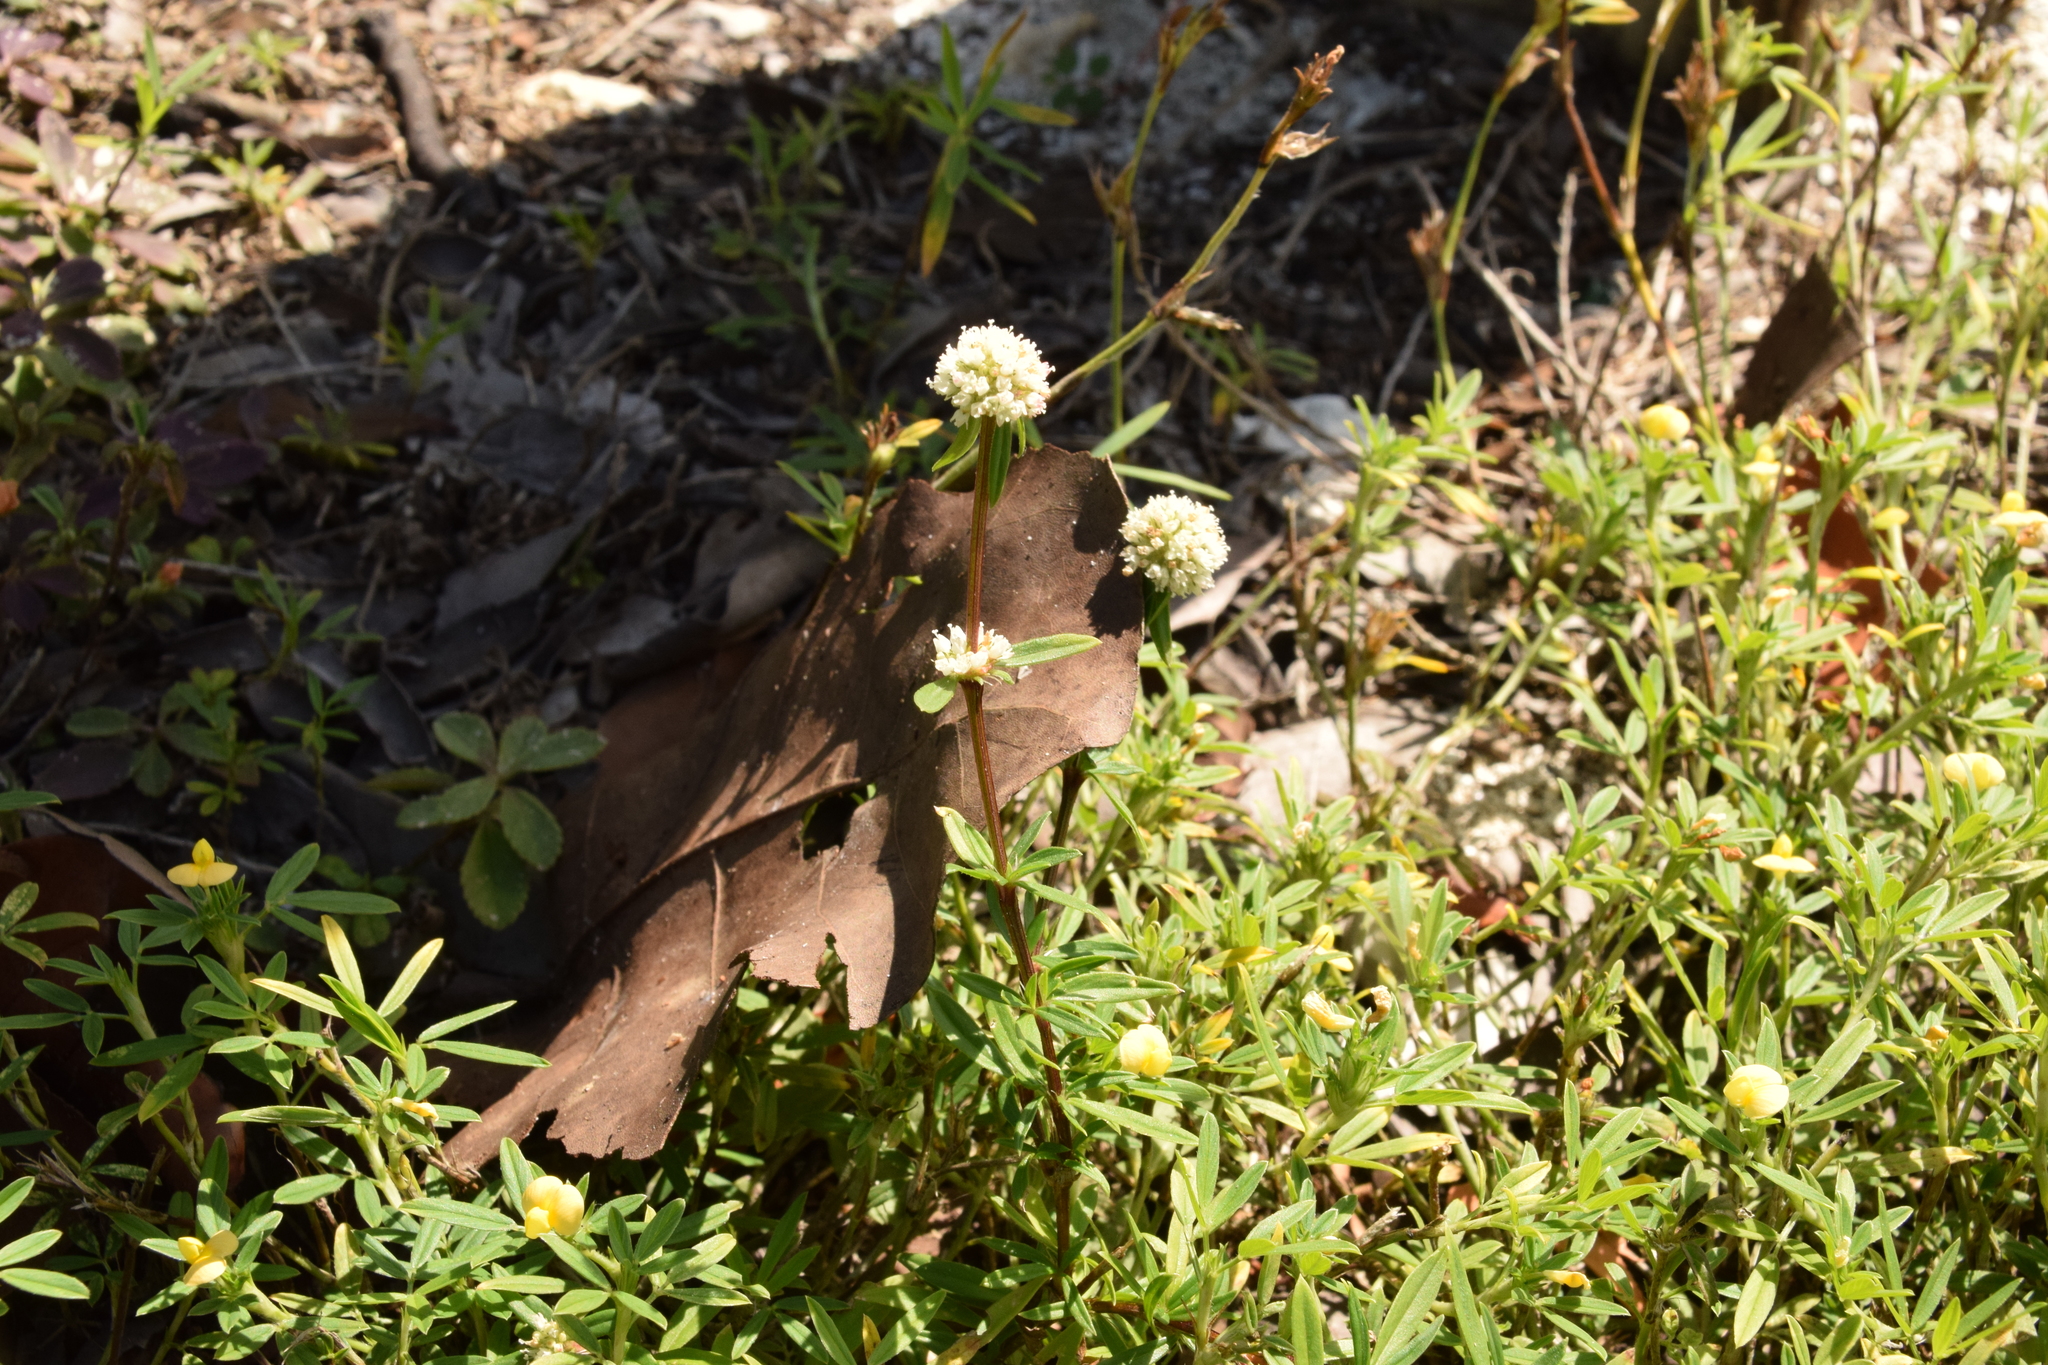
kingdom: Plantae
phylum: Tracheophyta
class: Magnoliopsida
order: Gentianales
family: Rubiaceae
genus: Spermacoce
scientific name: Spermacoce verticillata
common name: Shrubby false buttonweed
